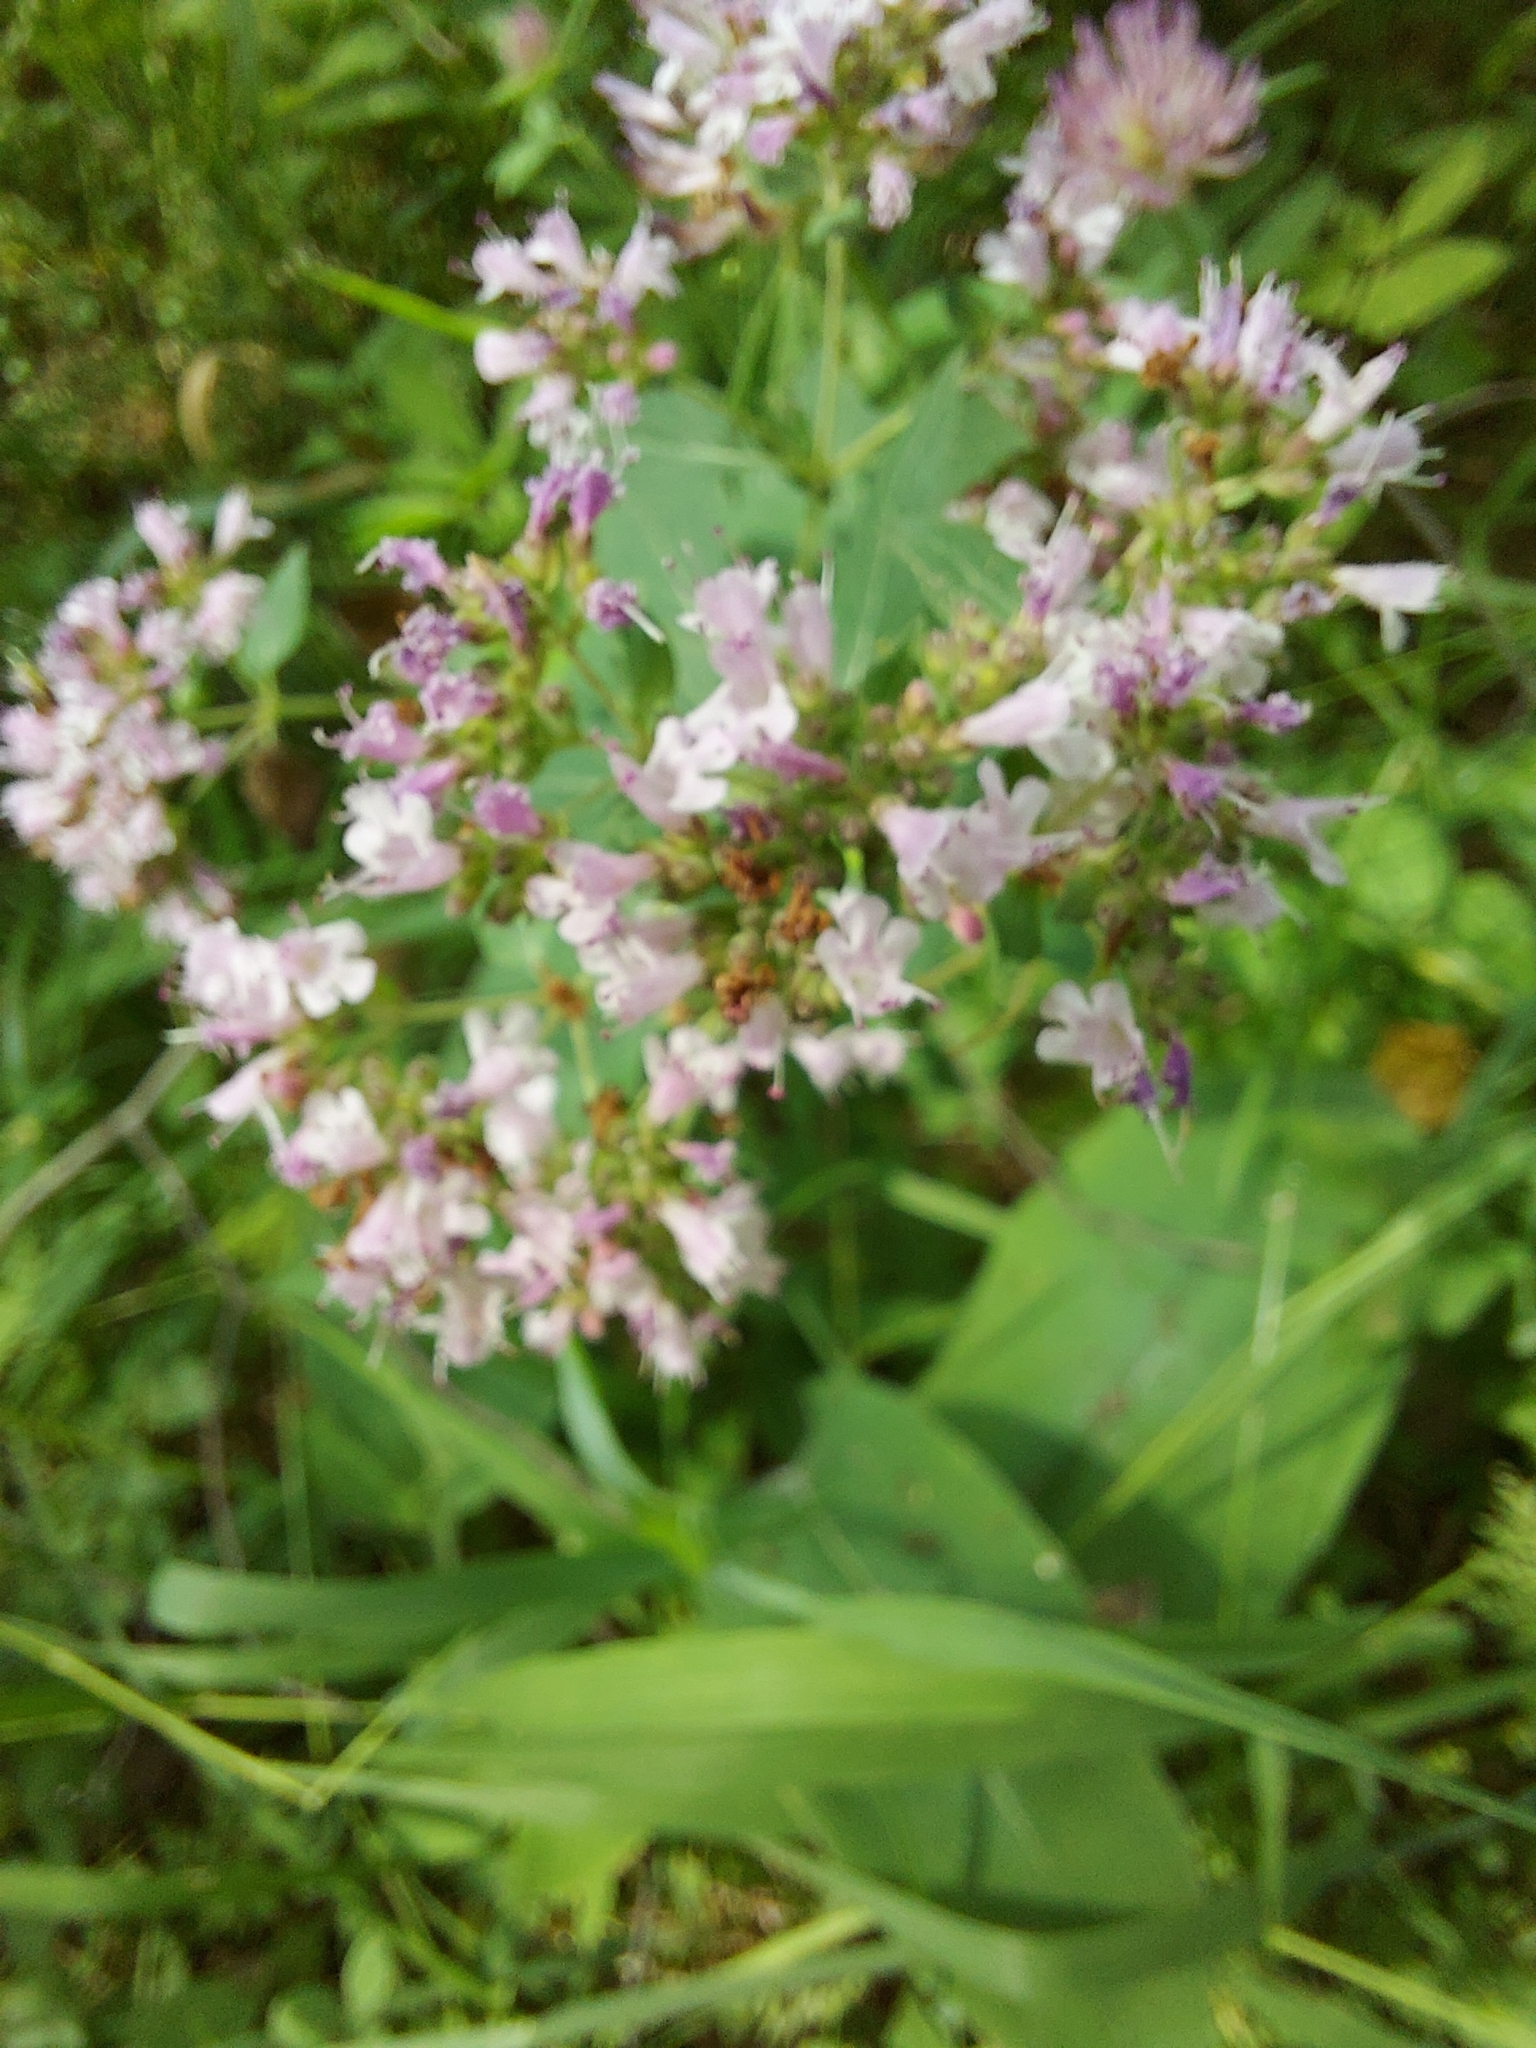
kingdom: Plantae
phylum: Tracheophyta
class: Magnoliopsida
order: Lamiales
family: Lamiaceae
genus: Origanum
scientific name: Origanum vulgare
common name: Wild marjoram
